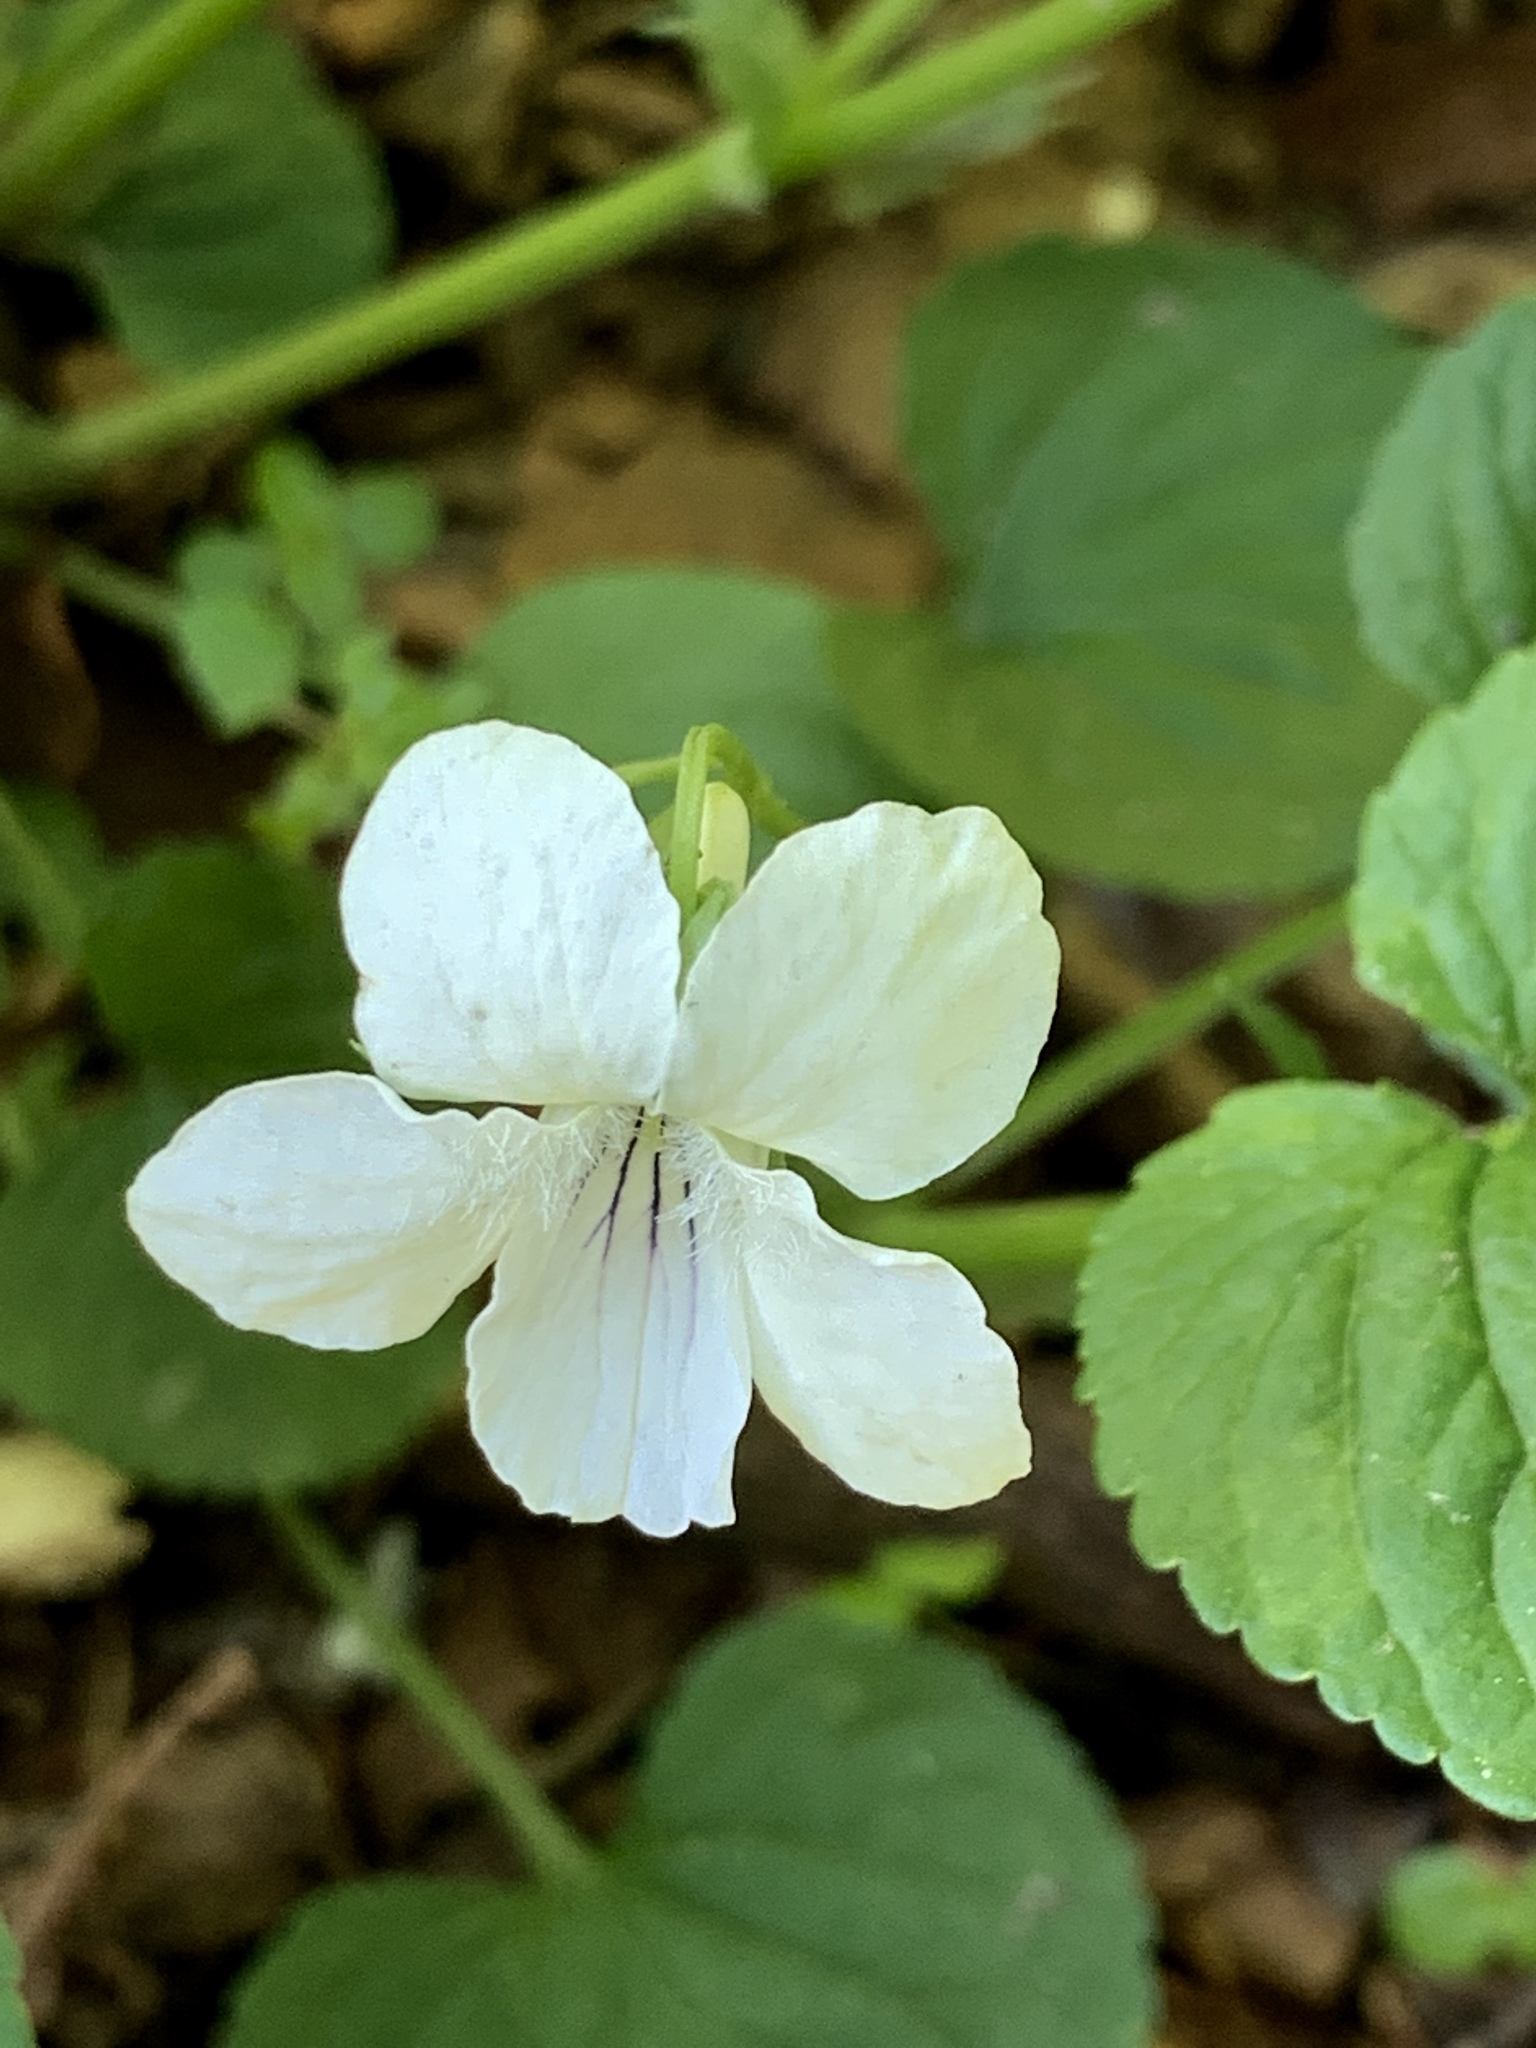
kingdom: Plantae
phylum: Tracheophyta
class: Magnoliopsida
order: Malpighiales
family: Violaceae
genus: Viola
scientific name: Viola striata
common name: Cream violet
